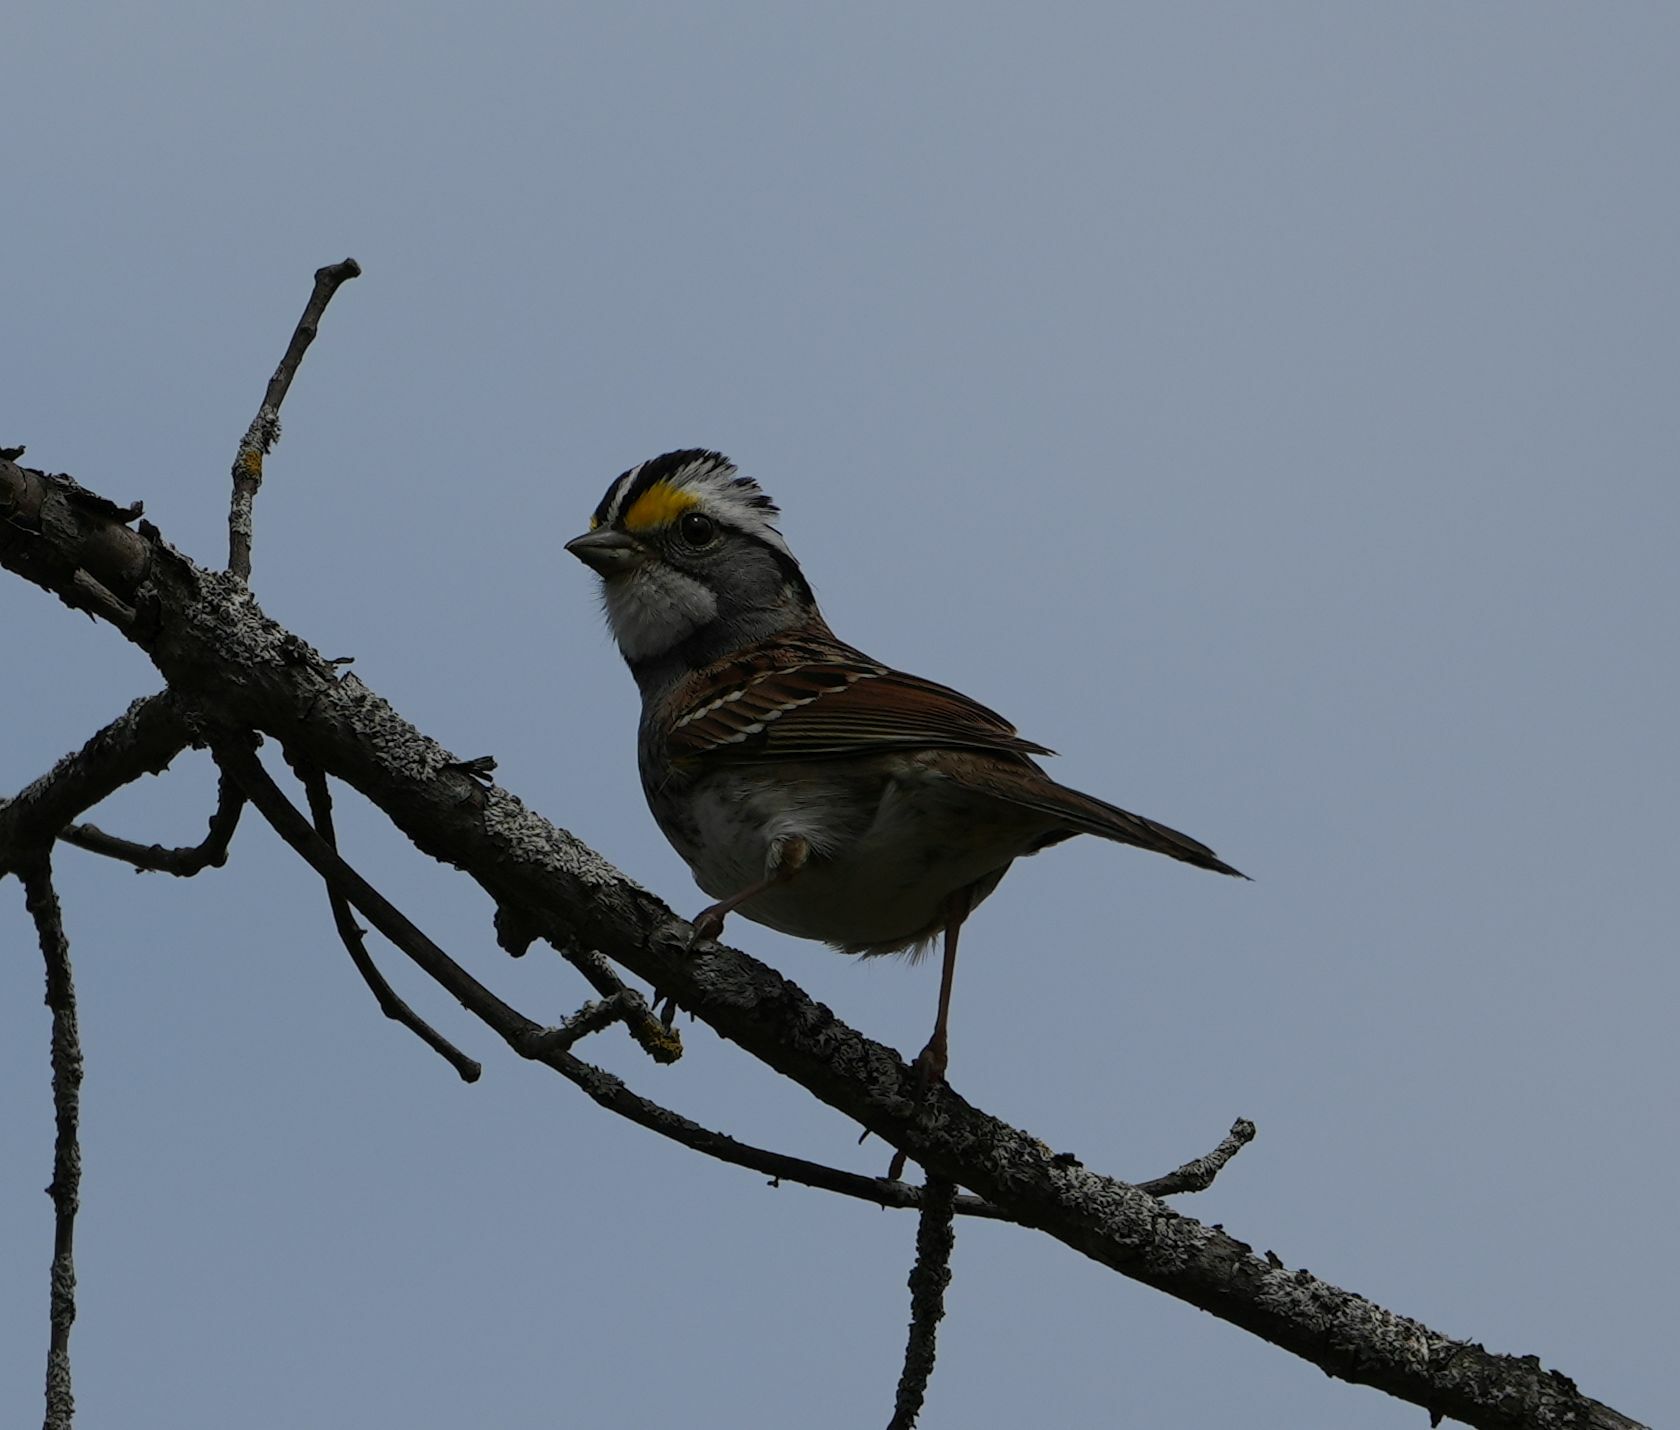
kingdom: Animalia
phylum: Chordata
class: Aves
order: Passeriformes
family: Passerellidae
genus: Zonotrichia
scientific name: Zonotrichia albicollis
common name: White-throated sparrow
